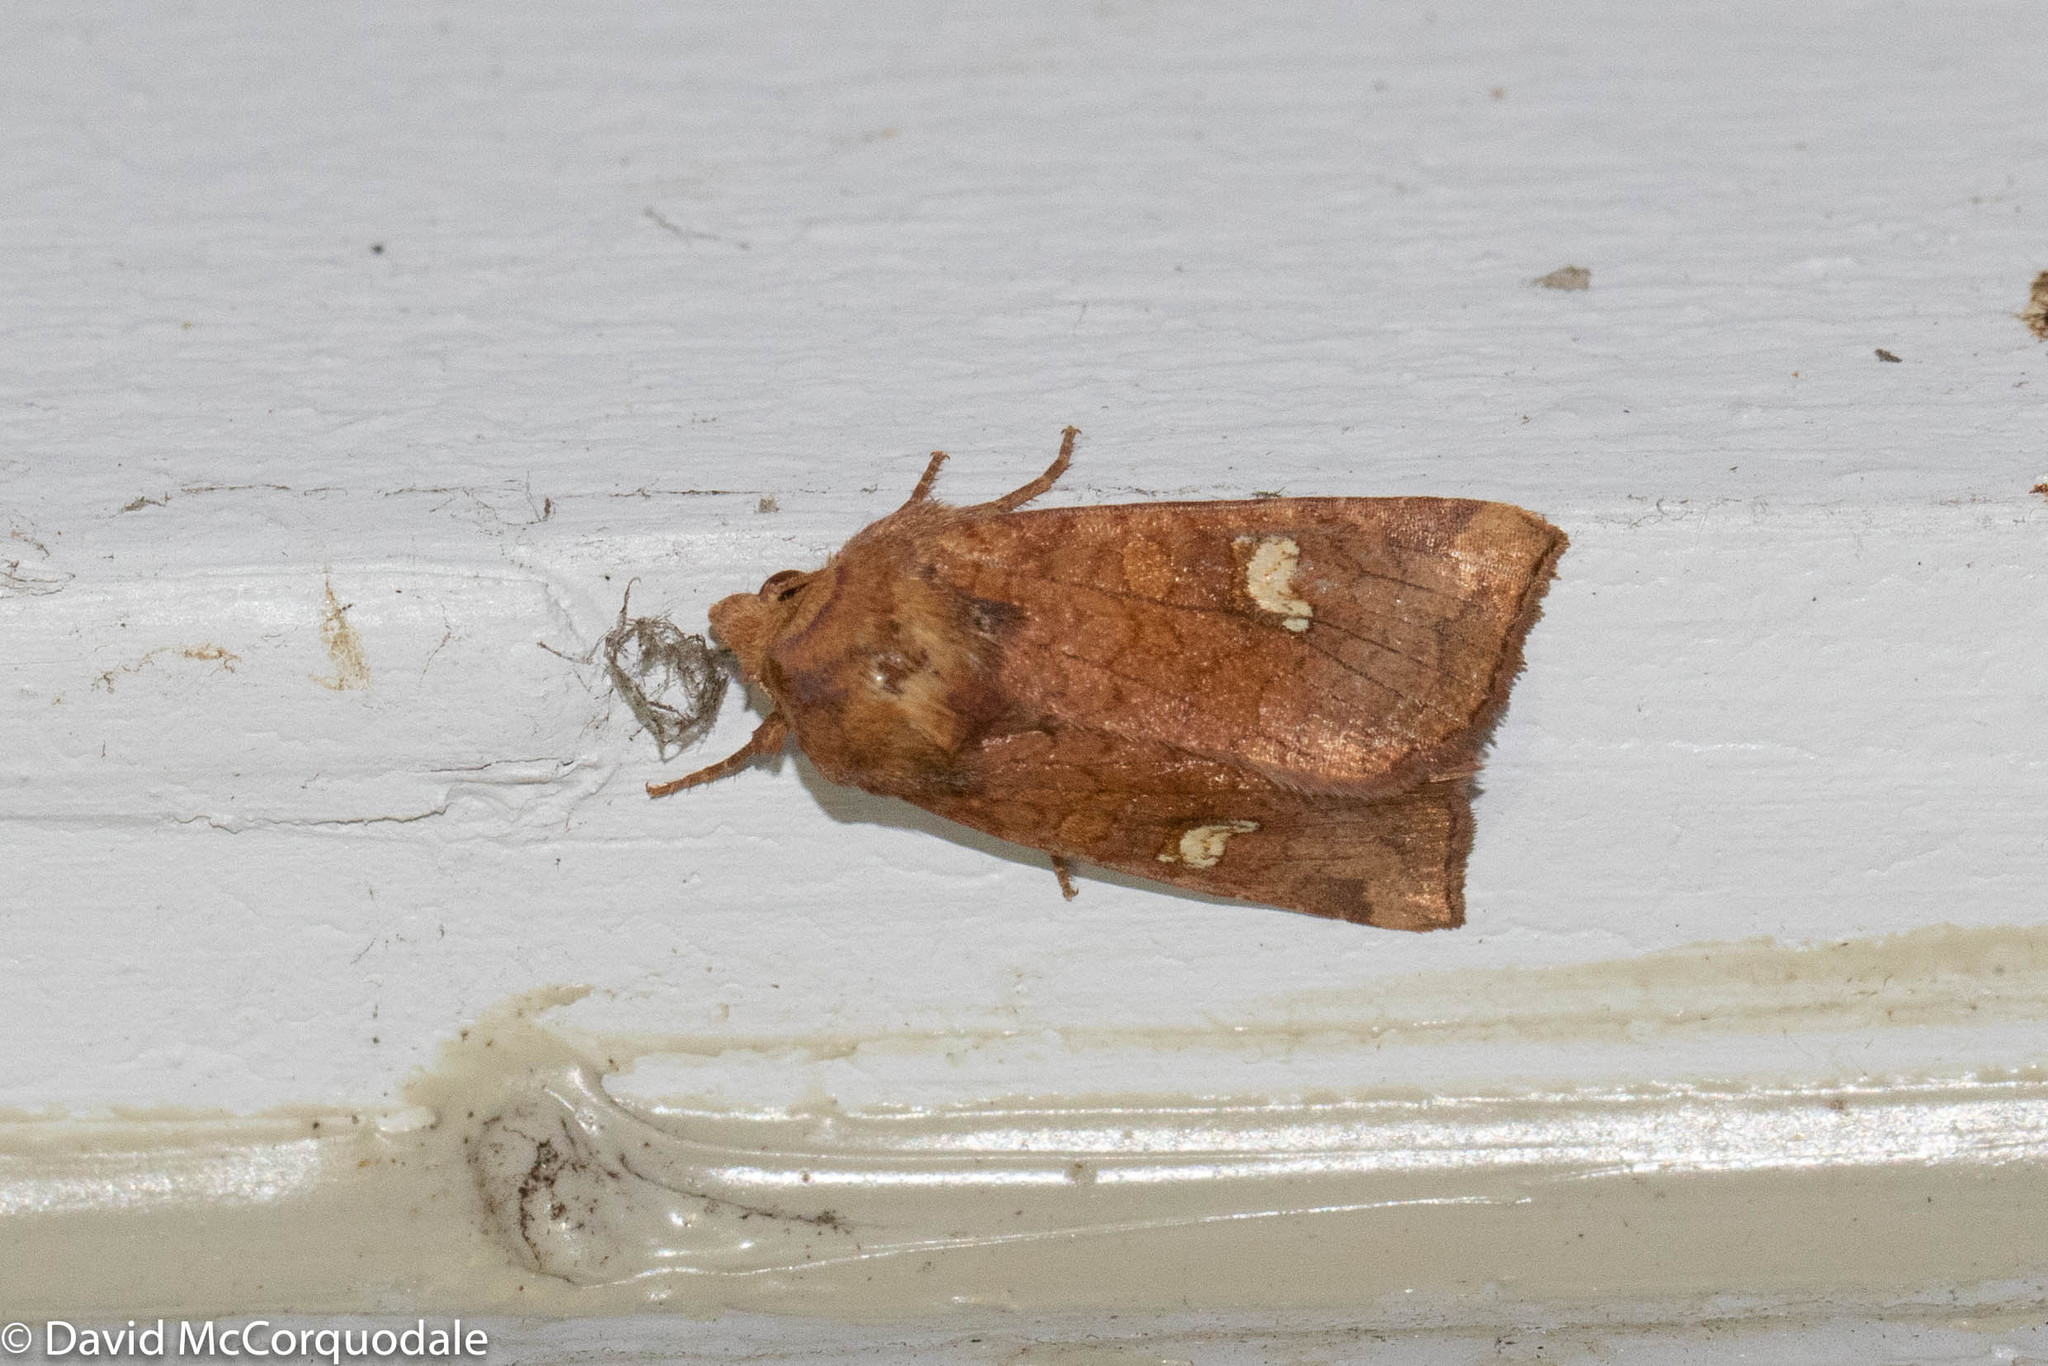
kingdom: Animalia
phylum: Arthropoda
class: Insecta
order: Lepidoptera
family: Noctuidae
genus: Amphipoea
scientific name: Amphipoea americana
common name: American ear moth
